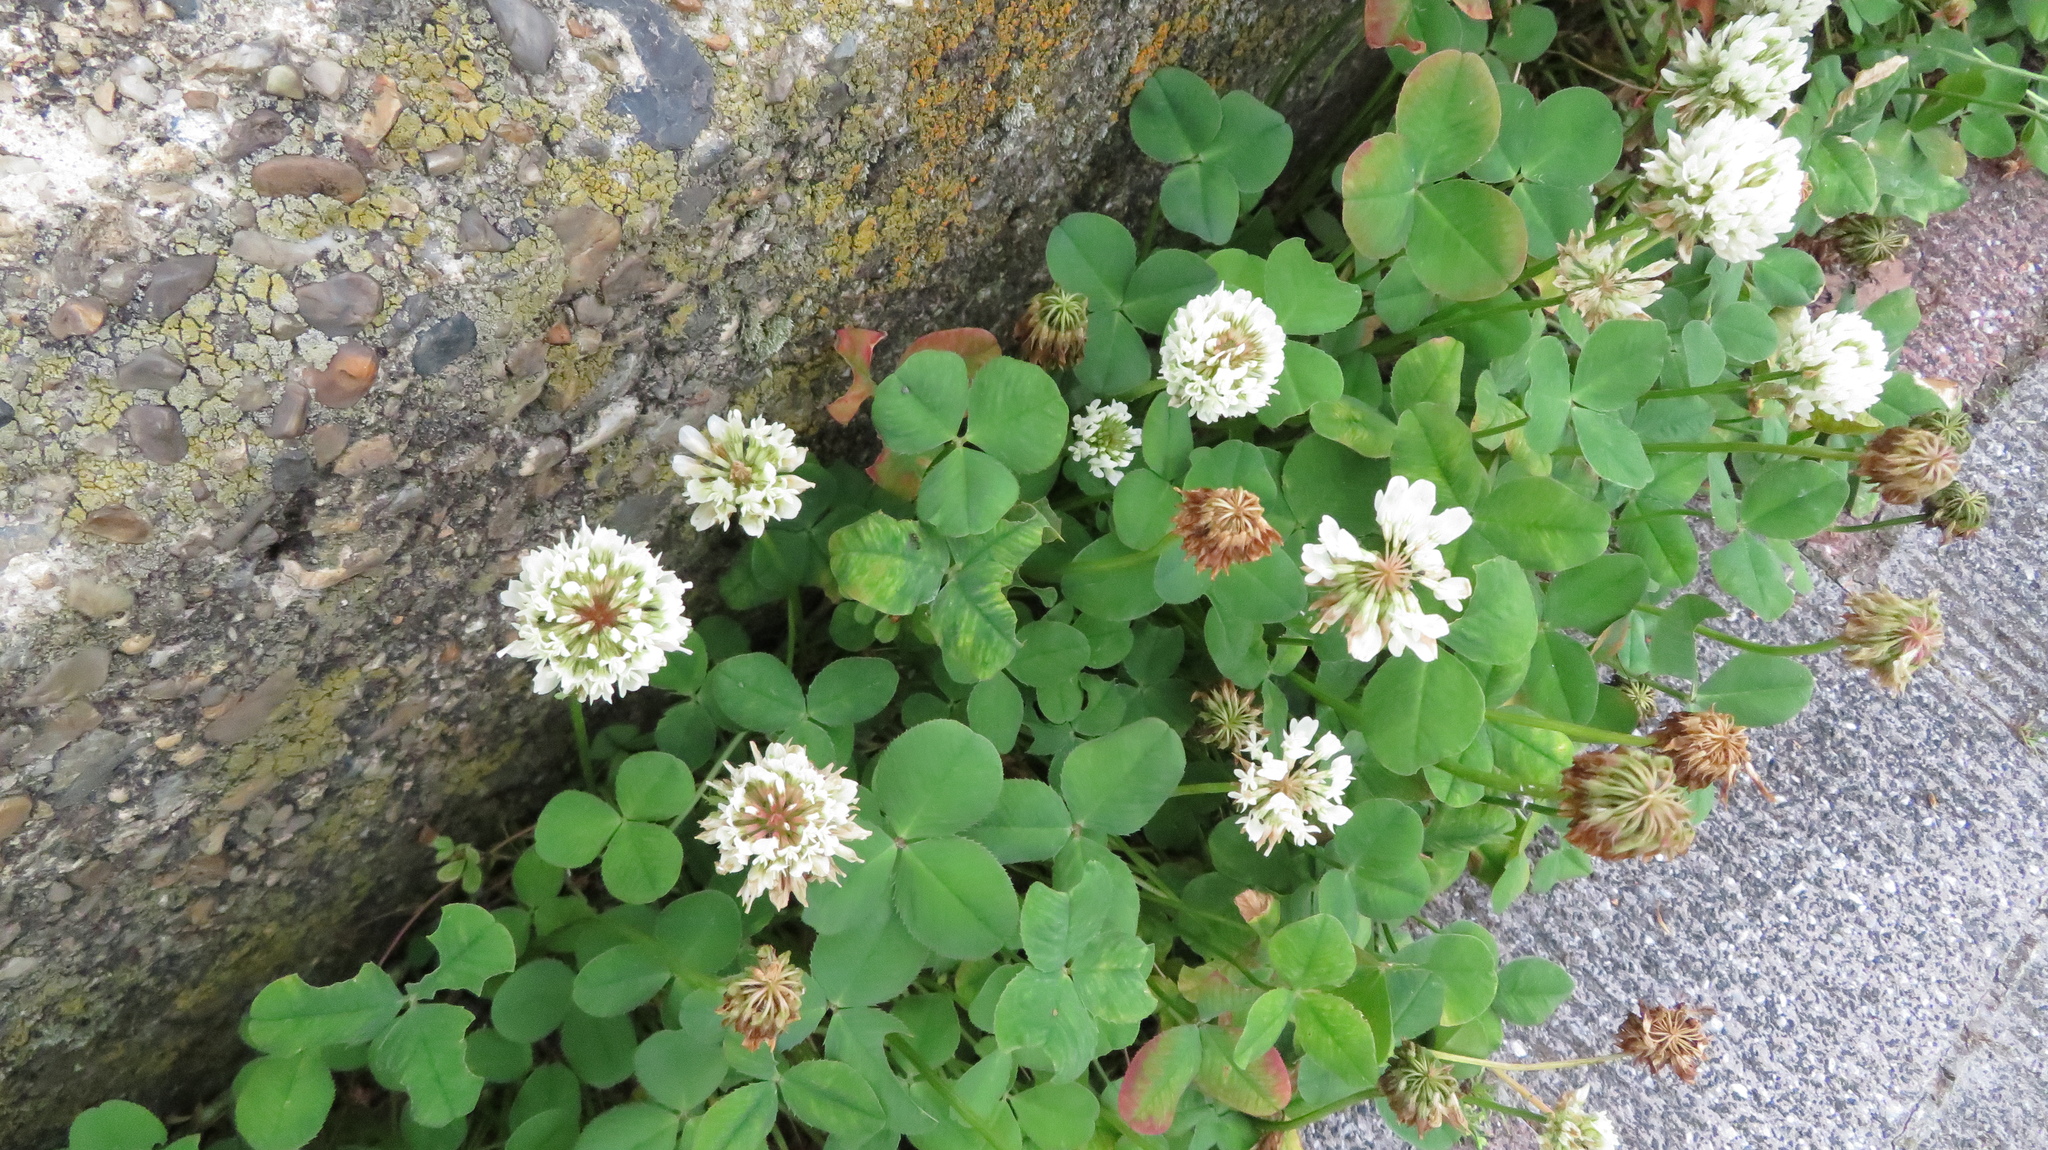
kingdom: Plantae
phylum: Tracheophyta
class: Magnoliopsida
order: Fabales
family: Fabaceae
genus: Trifolium
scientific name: Trifolium repens
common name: White clover
